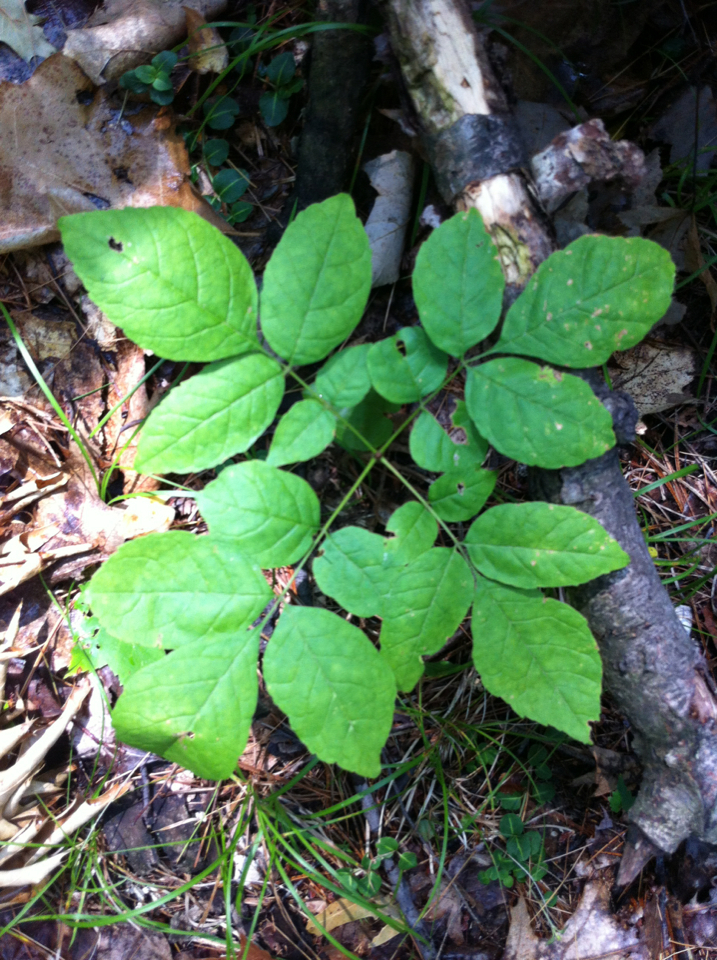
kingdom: Plantae
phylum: Tracheophyta
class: Magnoliopsida
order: Lamiales
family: Oleaceae
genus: Fraxinus
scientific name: Fraxinus americana
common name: White ash
